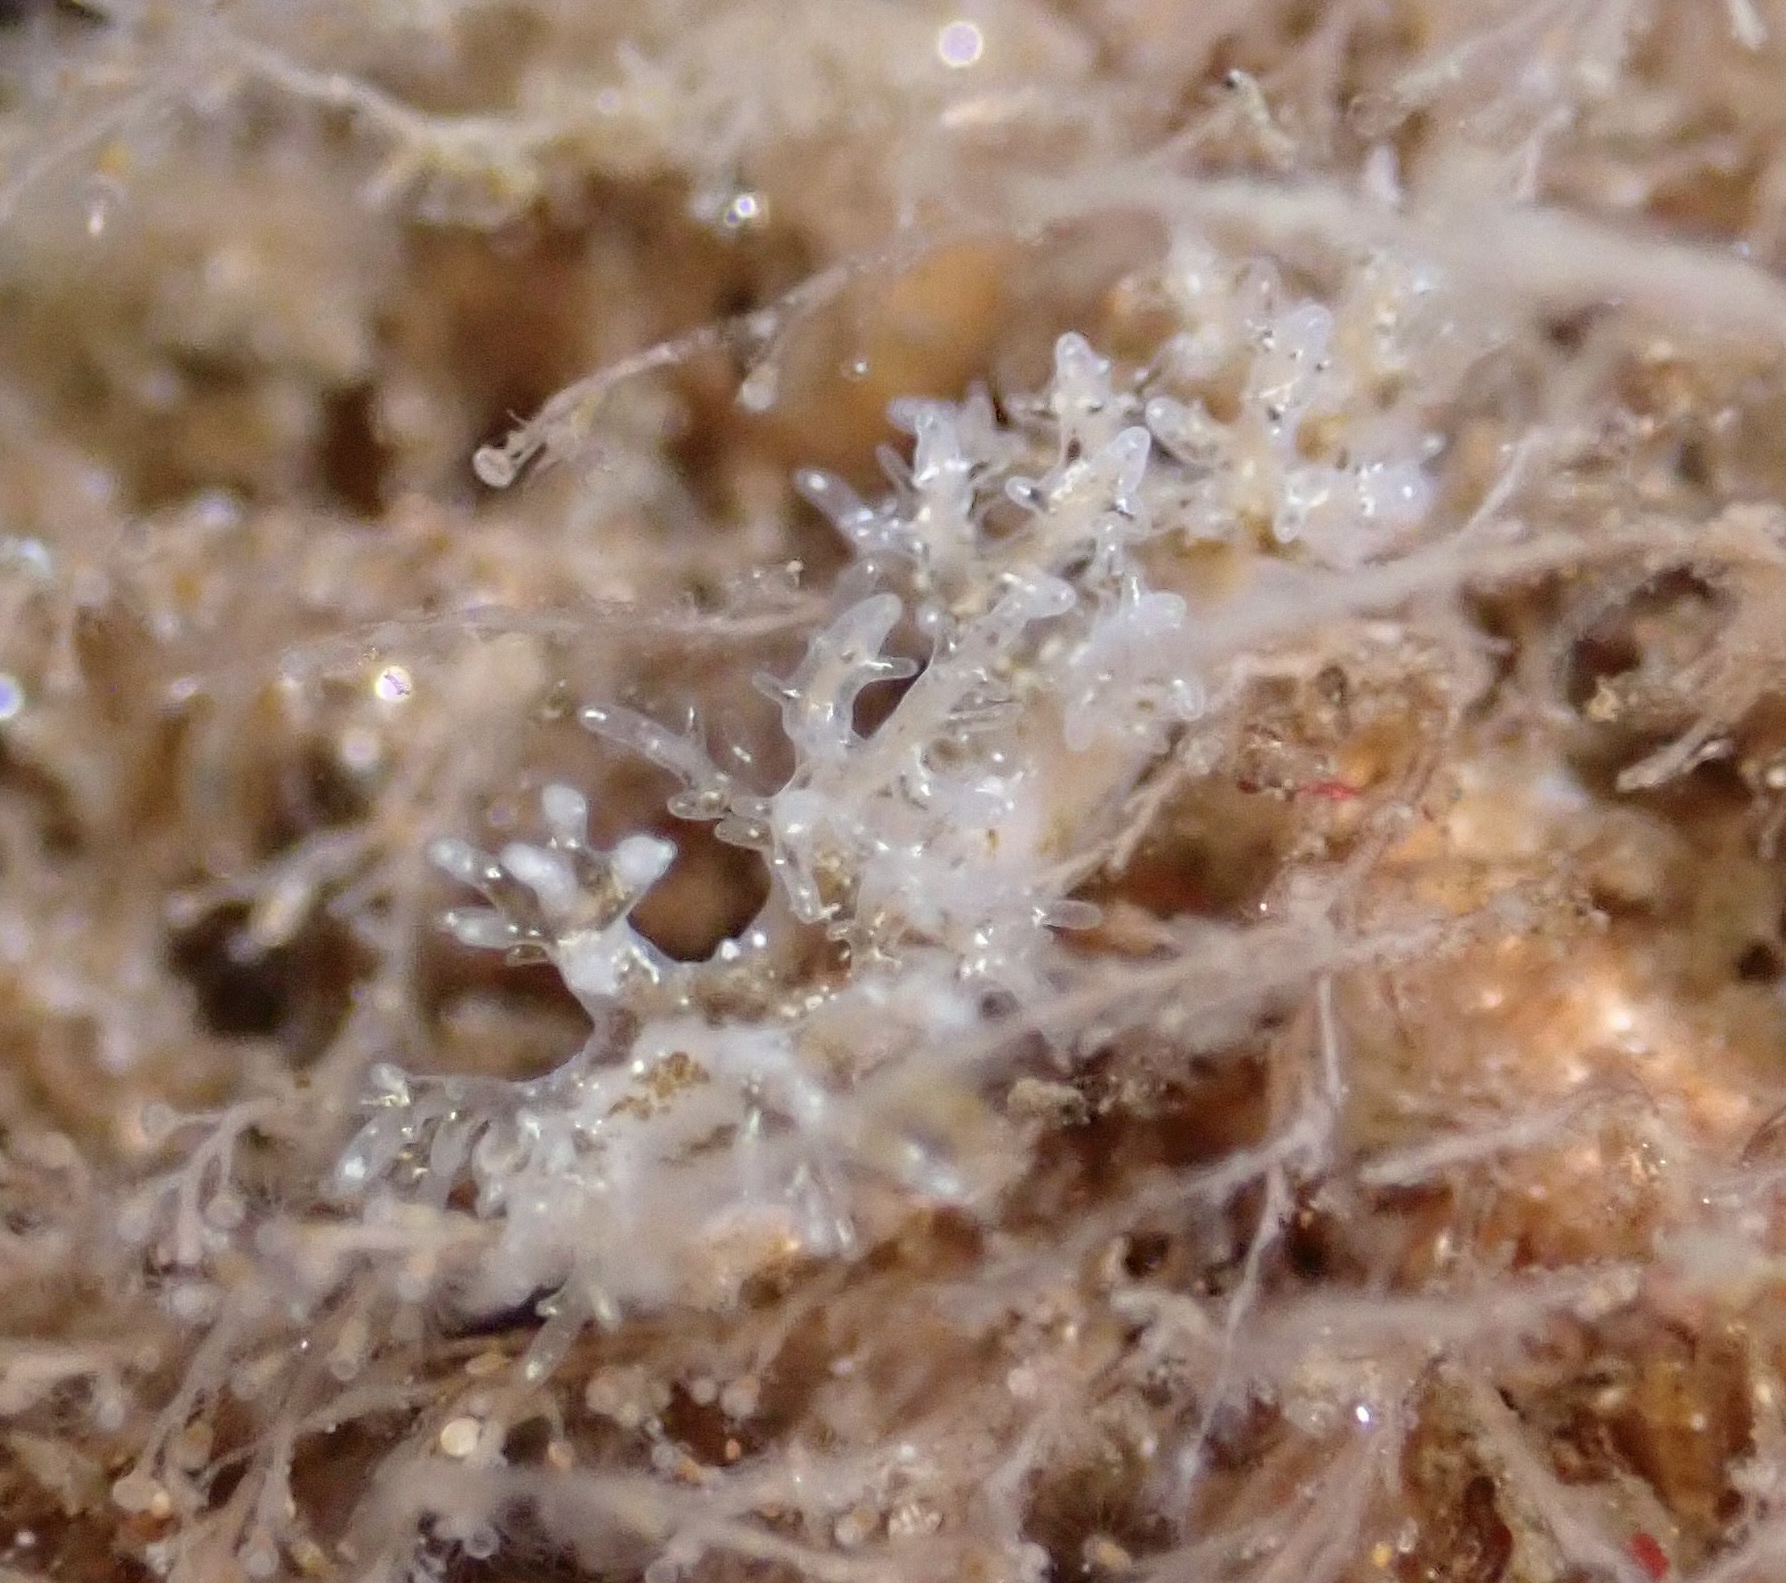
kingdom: Animalia
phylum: Mollusca
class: Gastropoda
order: Nudibranchia
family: Dendronotidae
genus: Dendronotus
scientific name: Dendronotus venustus
